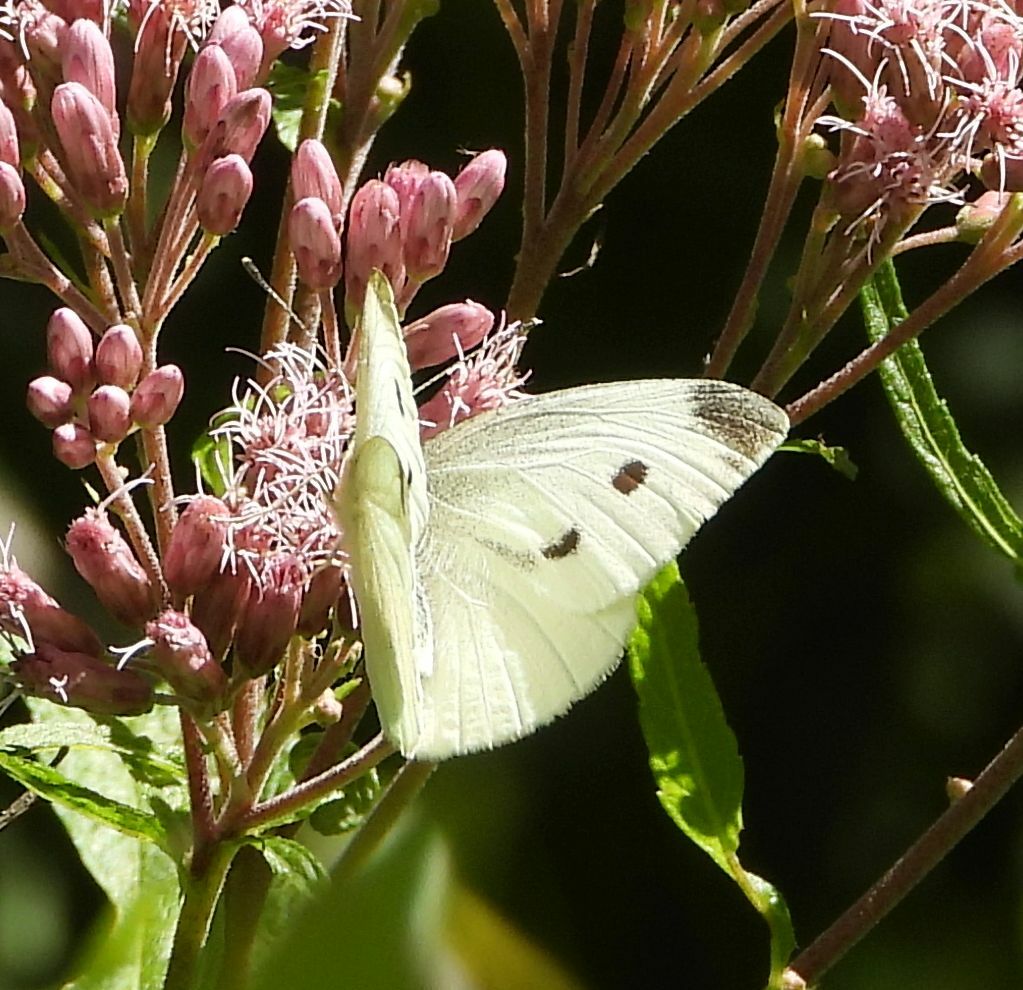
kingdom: Animalia
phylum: Arthropoda
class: Insecta
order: Lepidoptera
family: Pieridae
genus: Pieris
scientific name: Pieris rapae
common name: Small white
